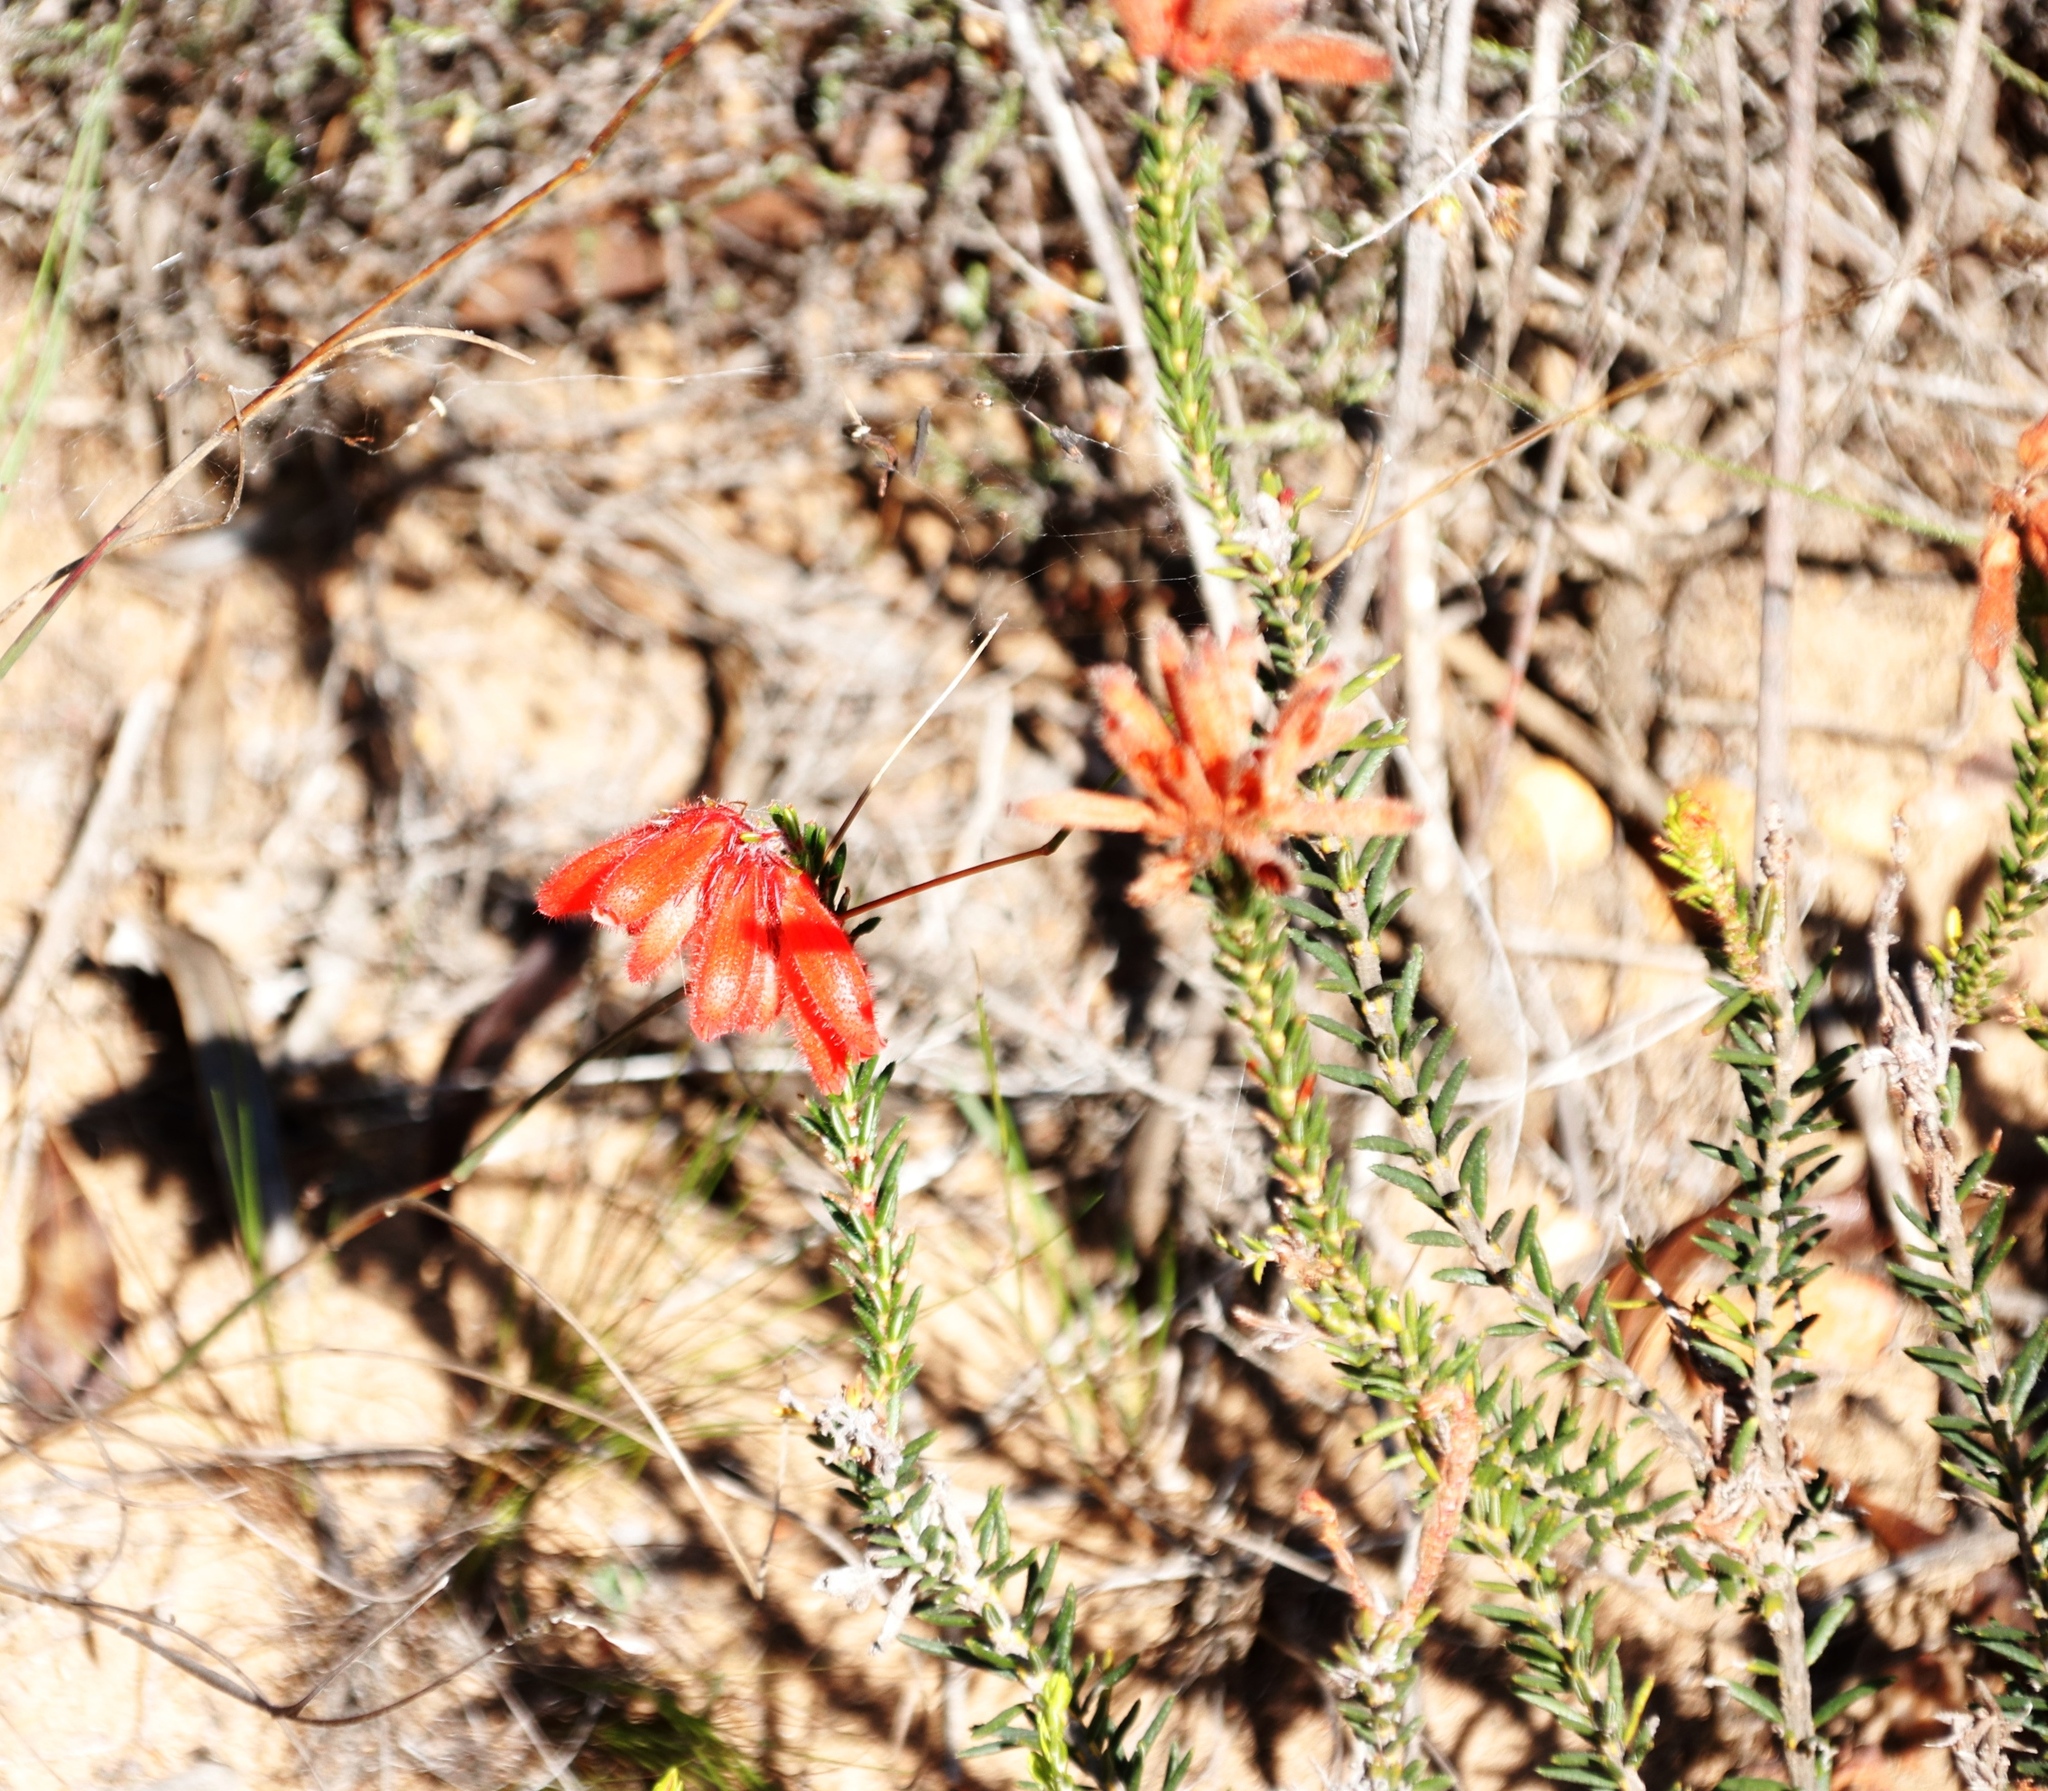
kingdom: Plantae
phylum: Tracheophyta
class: Magnoliopsida
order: Ericales
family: Ericaceae
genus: Erica
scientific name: Erica cerinthoides
